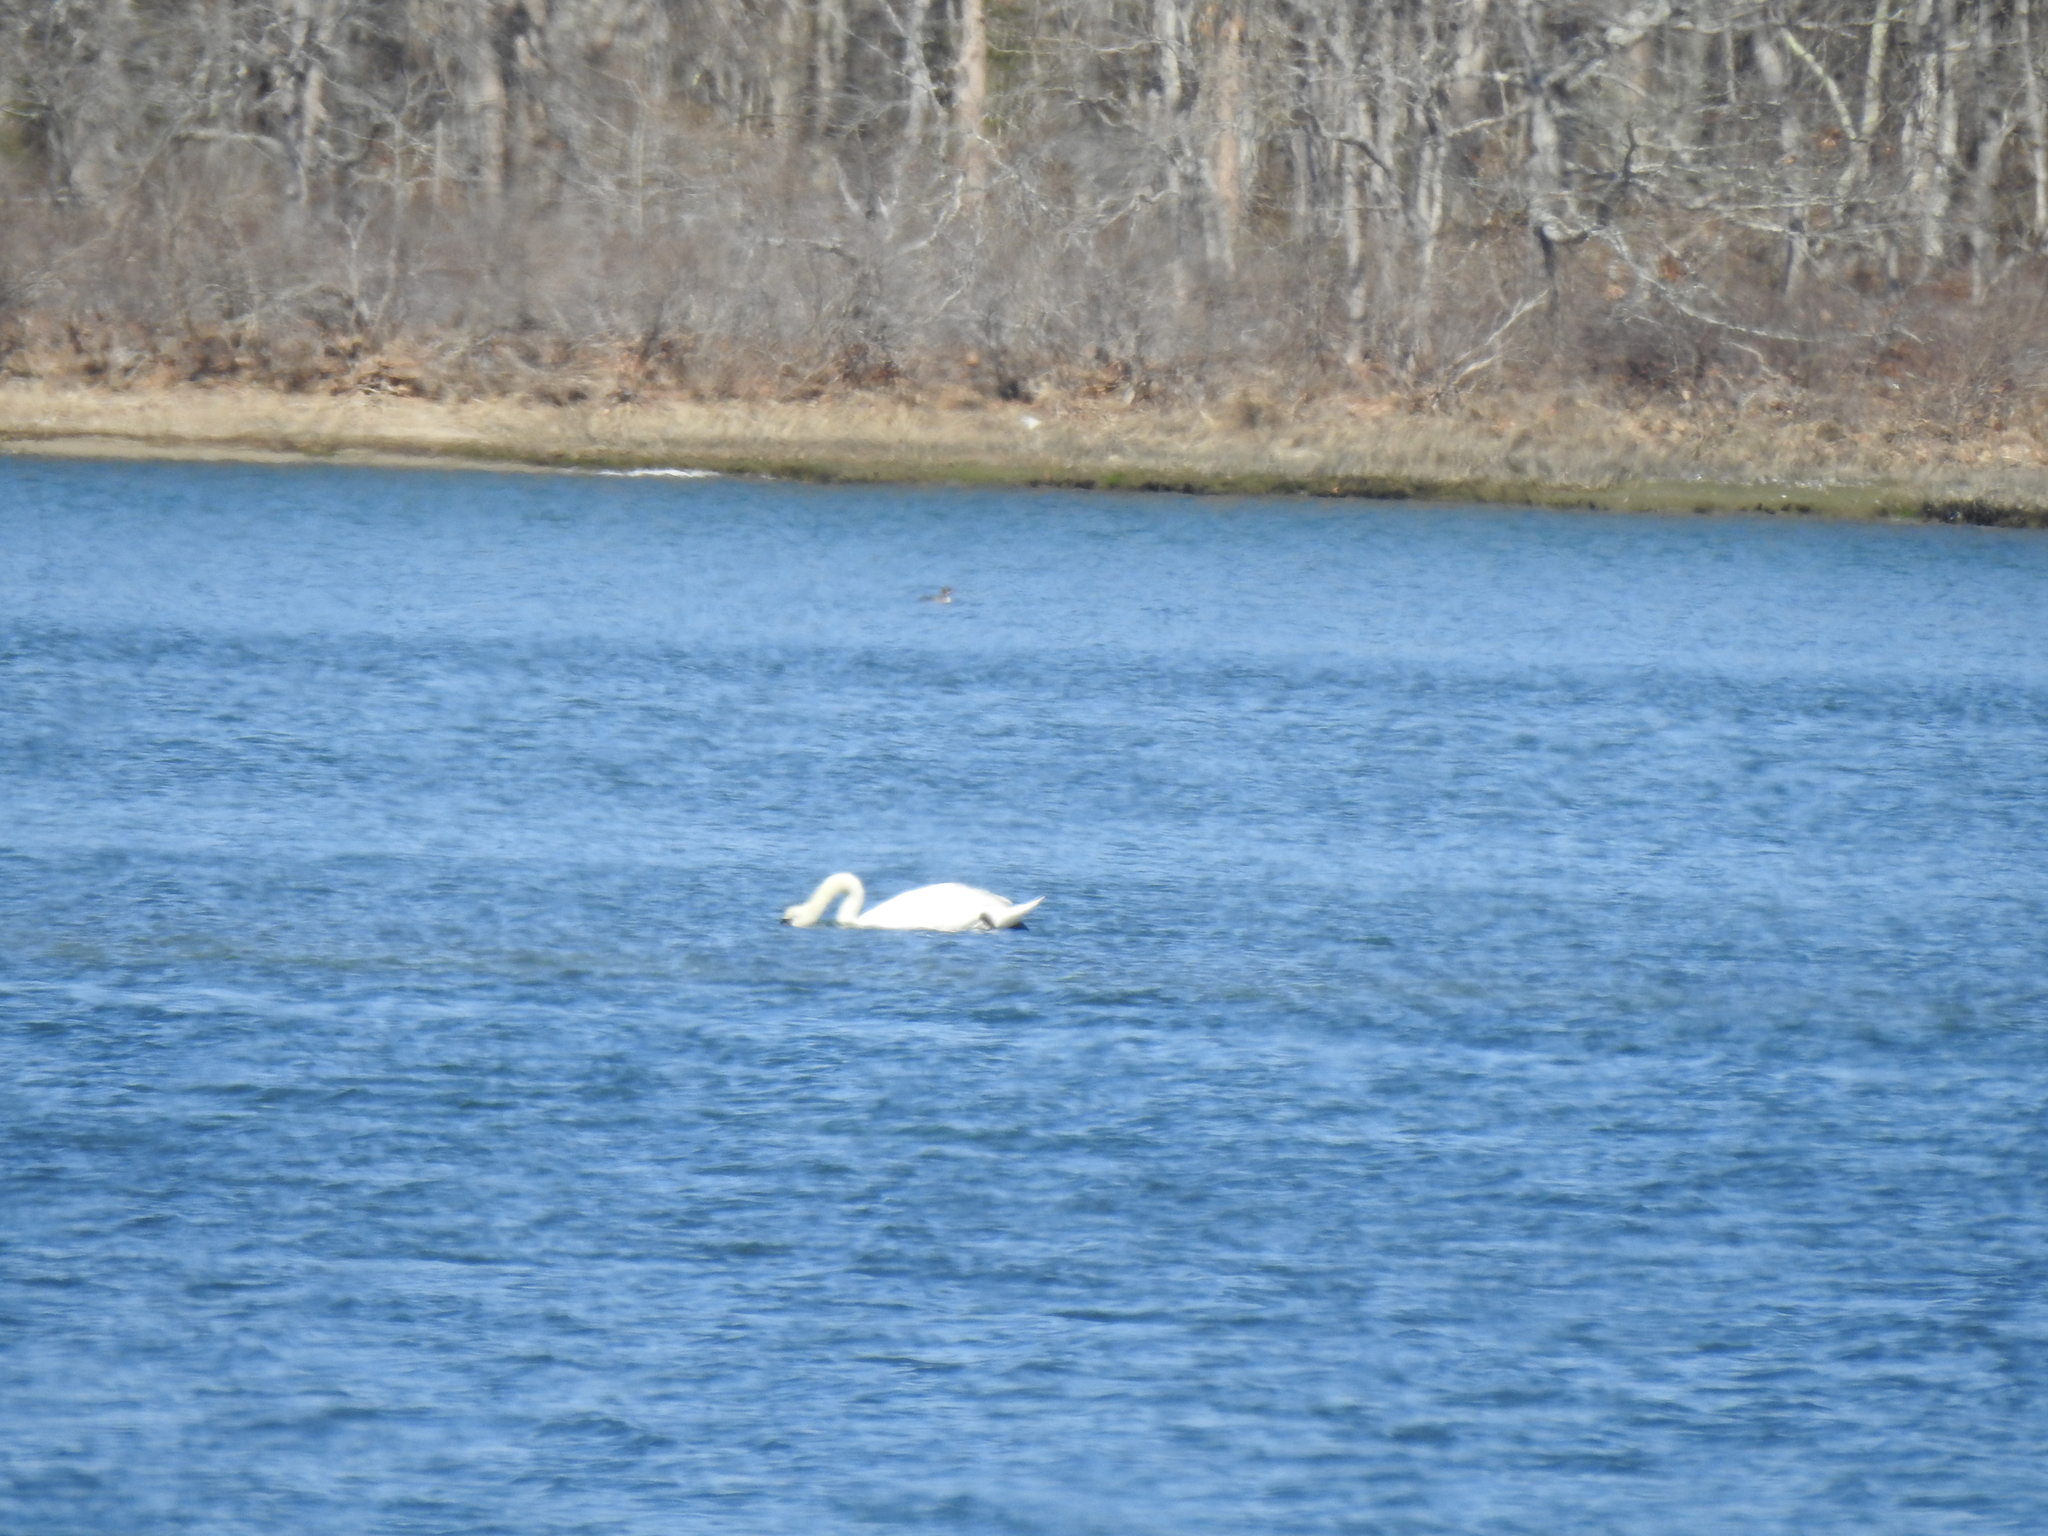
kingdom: Animalia
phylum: Chordata
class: Aves
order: Anseriformes
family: Anatidae
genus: Cygnus
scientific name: Cygnus olor
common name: Mute swan
